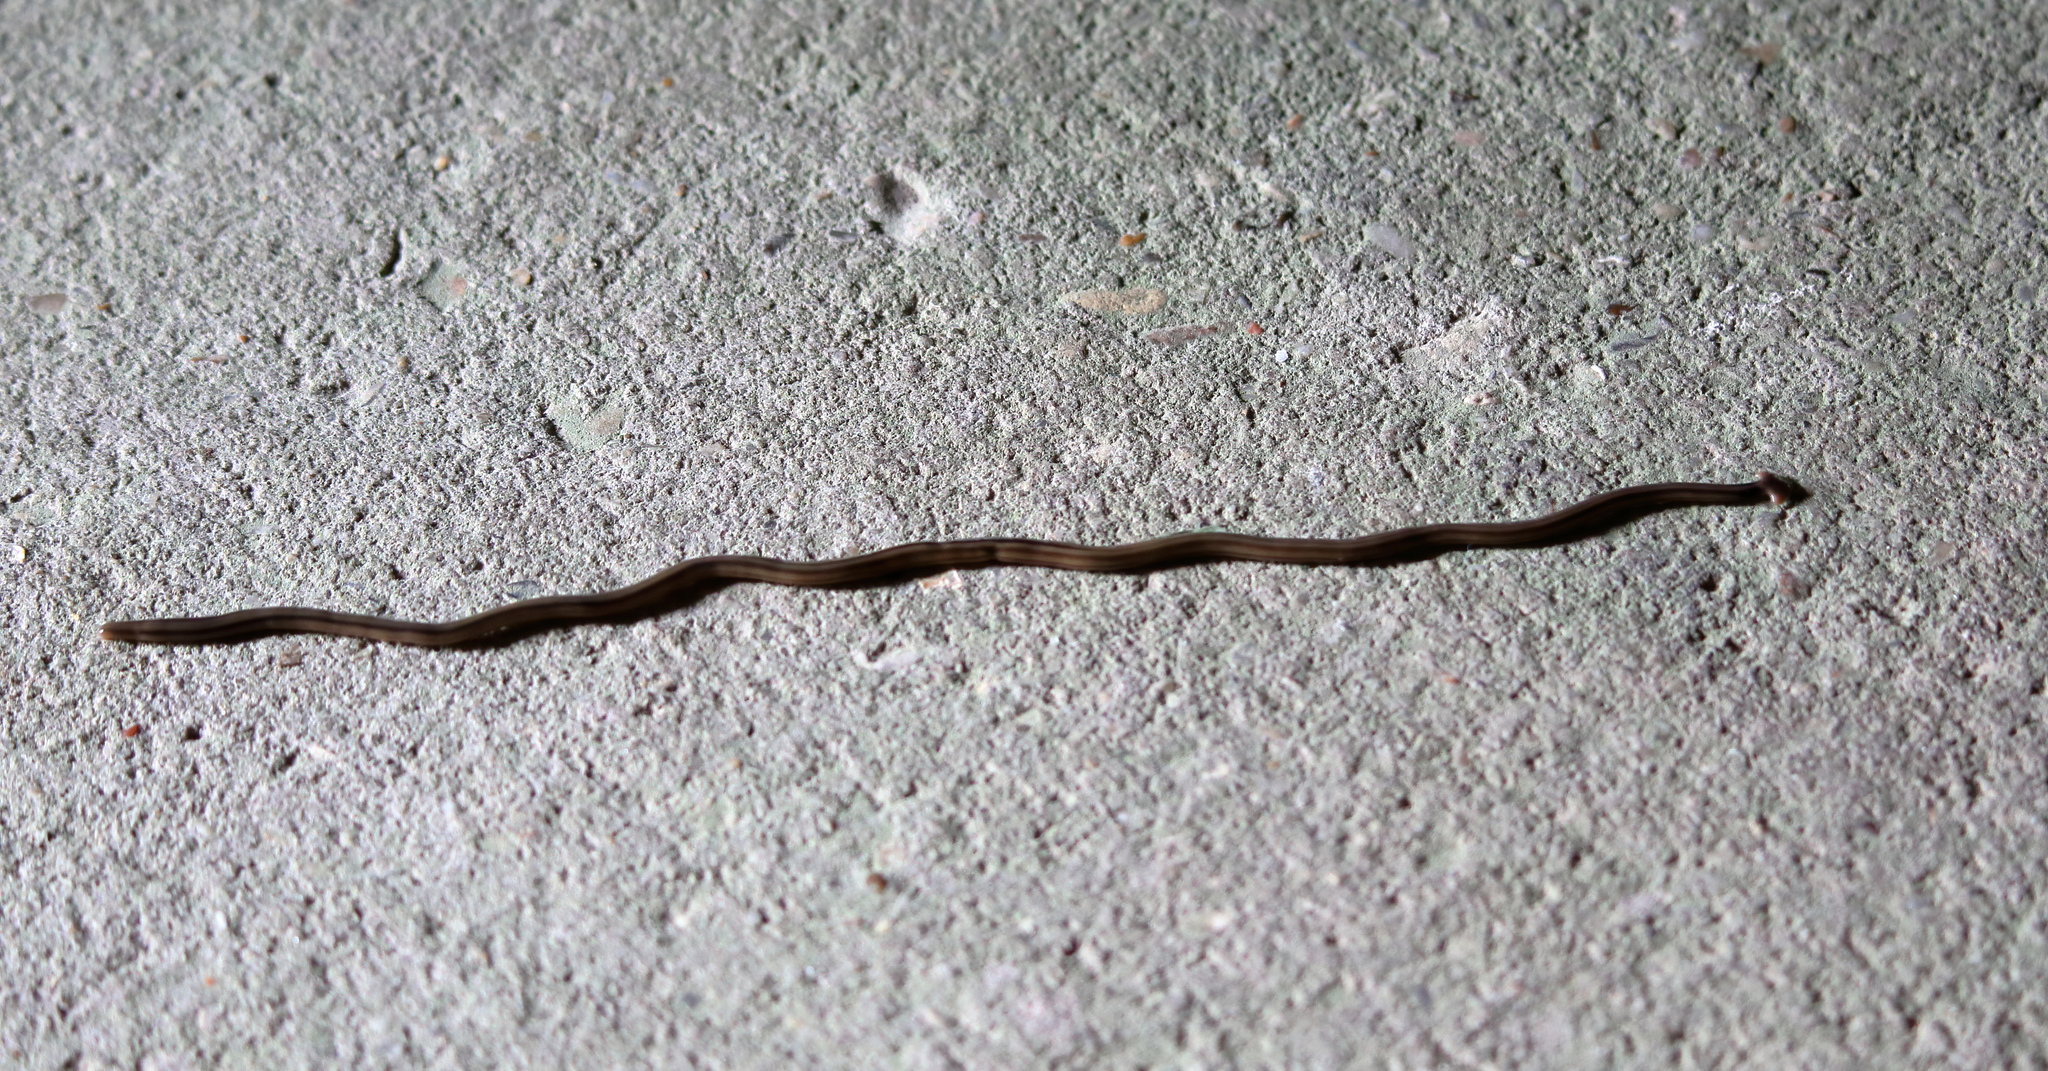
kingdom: Animalia
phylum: Platyhelminthes
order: Tricladida
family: Geoplanidae
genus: Bipalium
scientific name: Bipalium kewense
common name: Hammerhead flatworm
